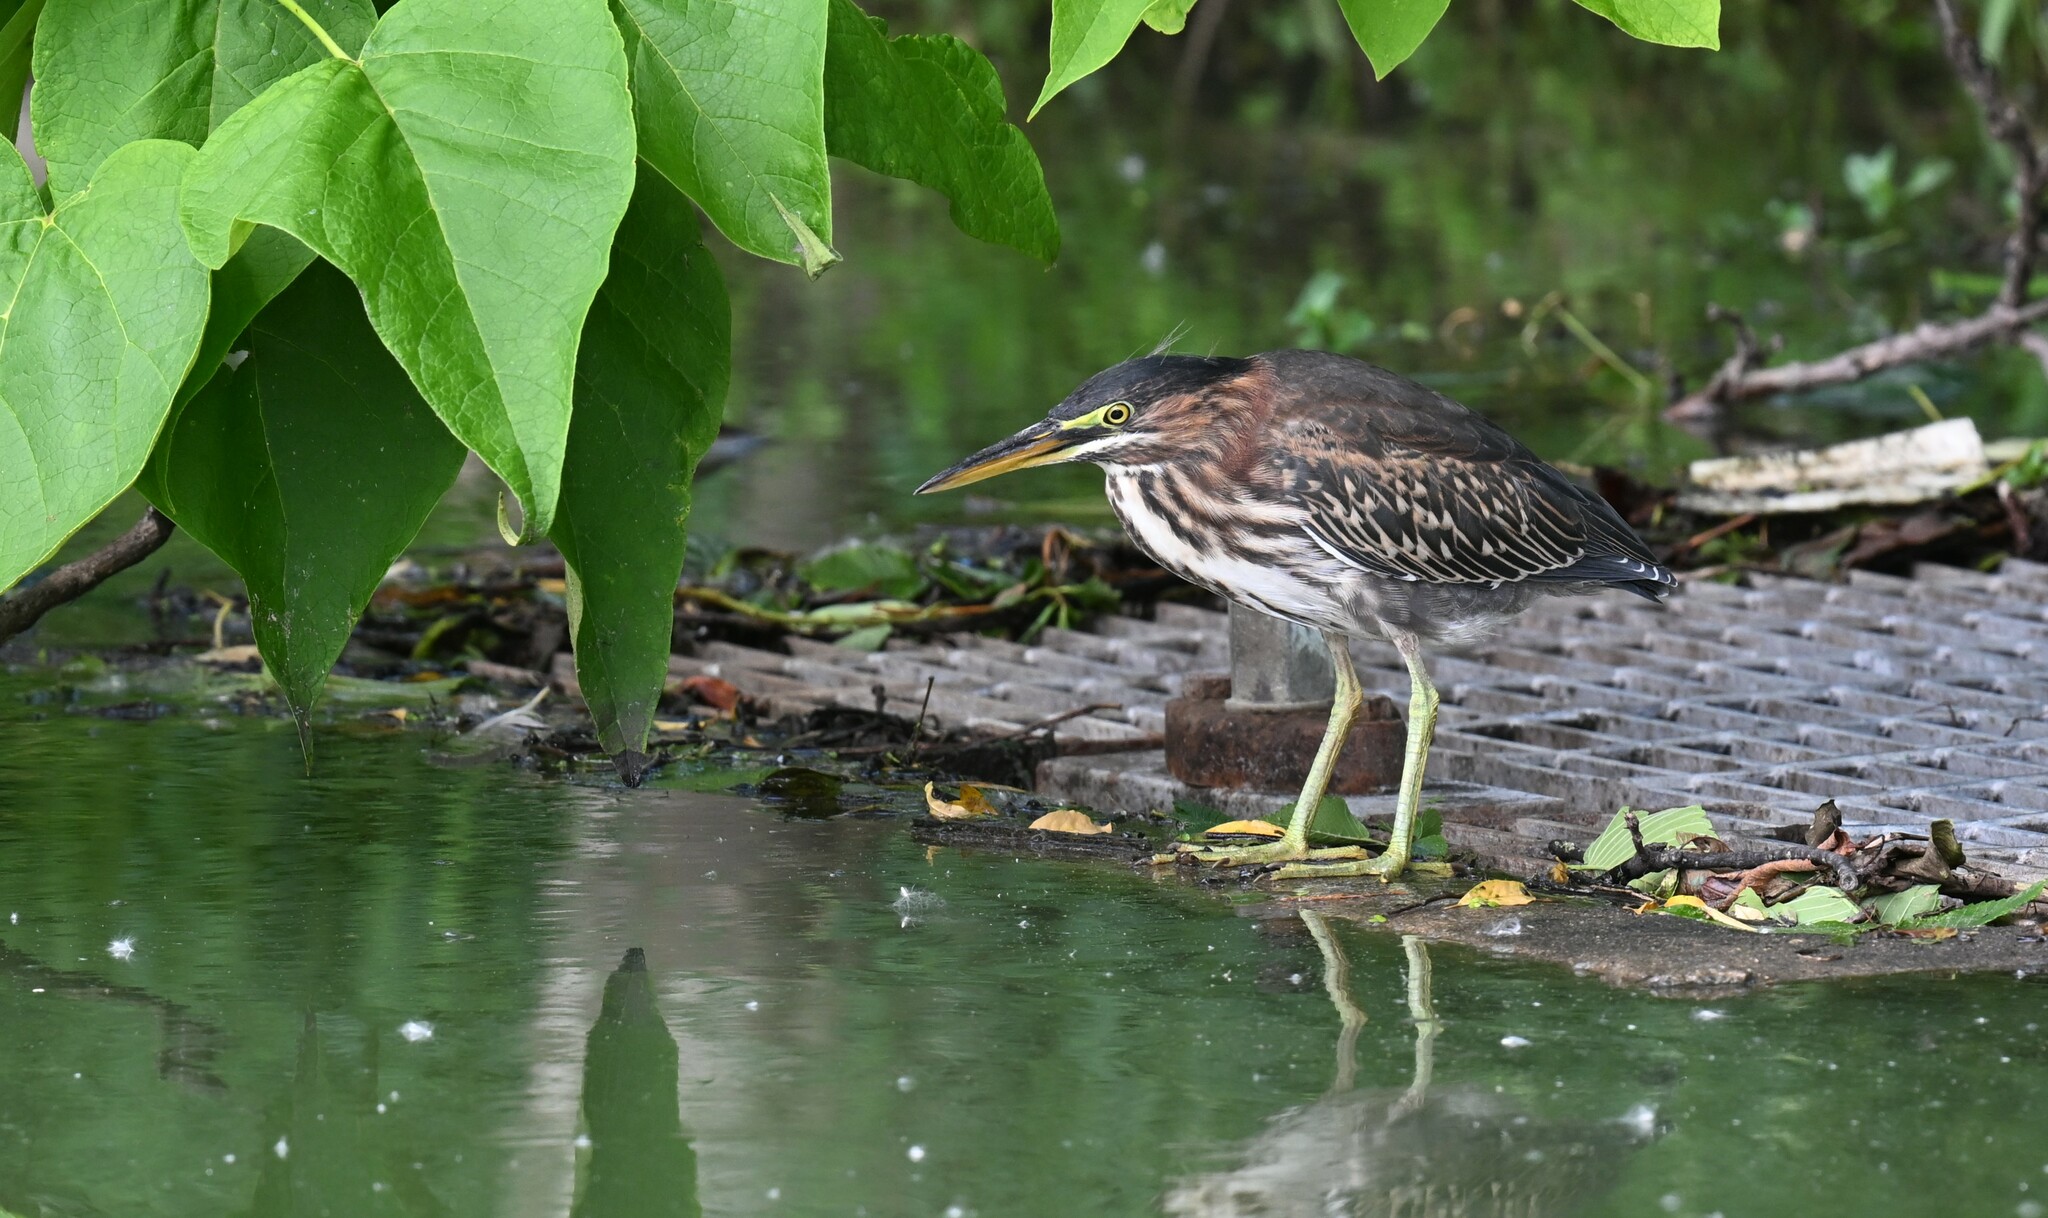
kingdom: Animalia
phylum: Chordata
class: Aves
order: Pelecaniformes
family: Ardeidae
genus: Butorides
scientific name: Butorides virescens
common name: Green heron
